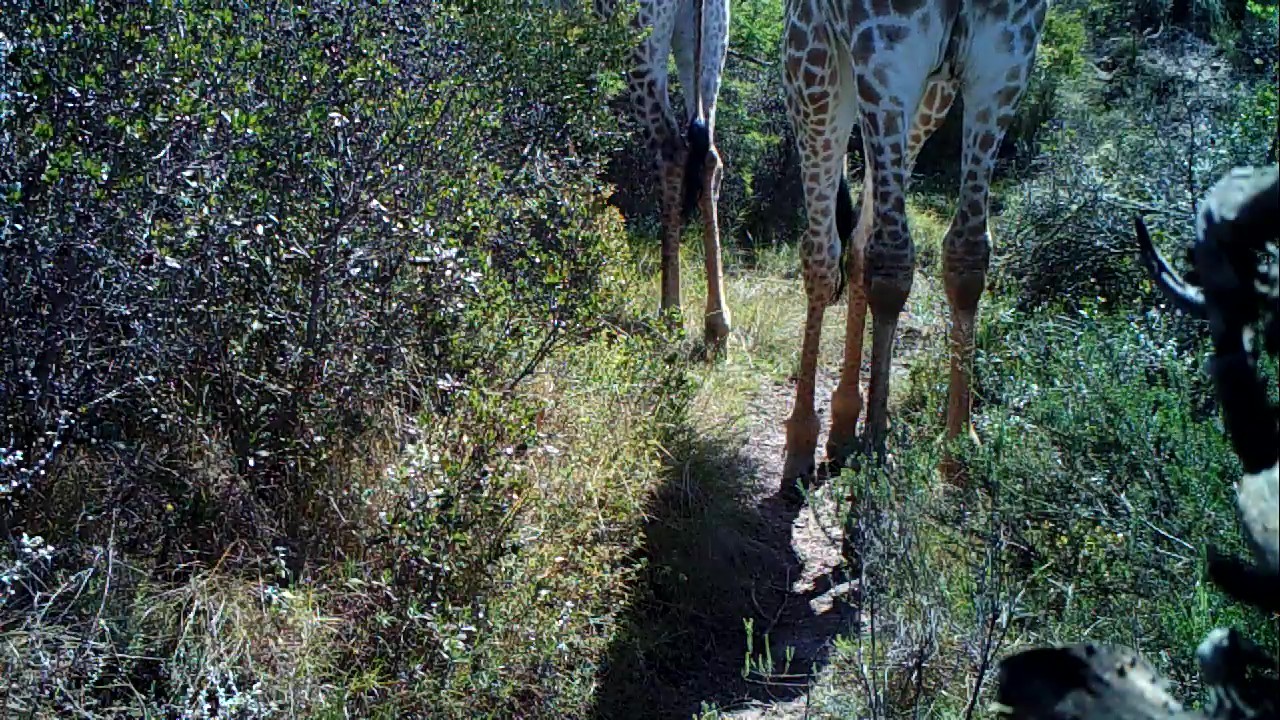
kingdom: Animalia
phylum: Chordata
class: Mammalia
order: Artiodactyla
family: Giraffidae
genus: Giraffa
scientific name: Giraffa giraffa
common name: Southern giraffe
